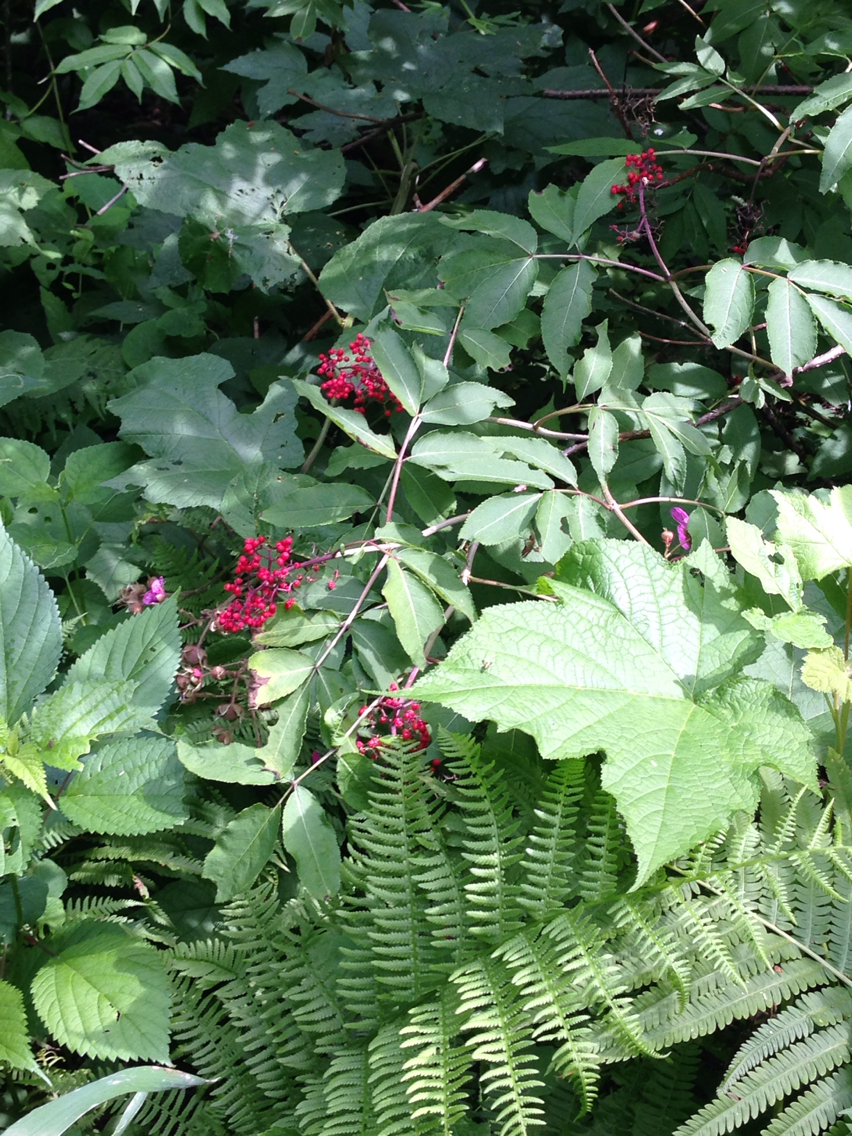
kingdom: Plantae
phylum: Tracheophyta
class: Magnoliopsida
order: Dipsacales
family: Viburnaceae
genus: Sambucus
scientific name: Sambucus racemosa
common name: Red-berried elder
